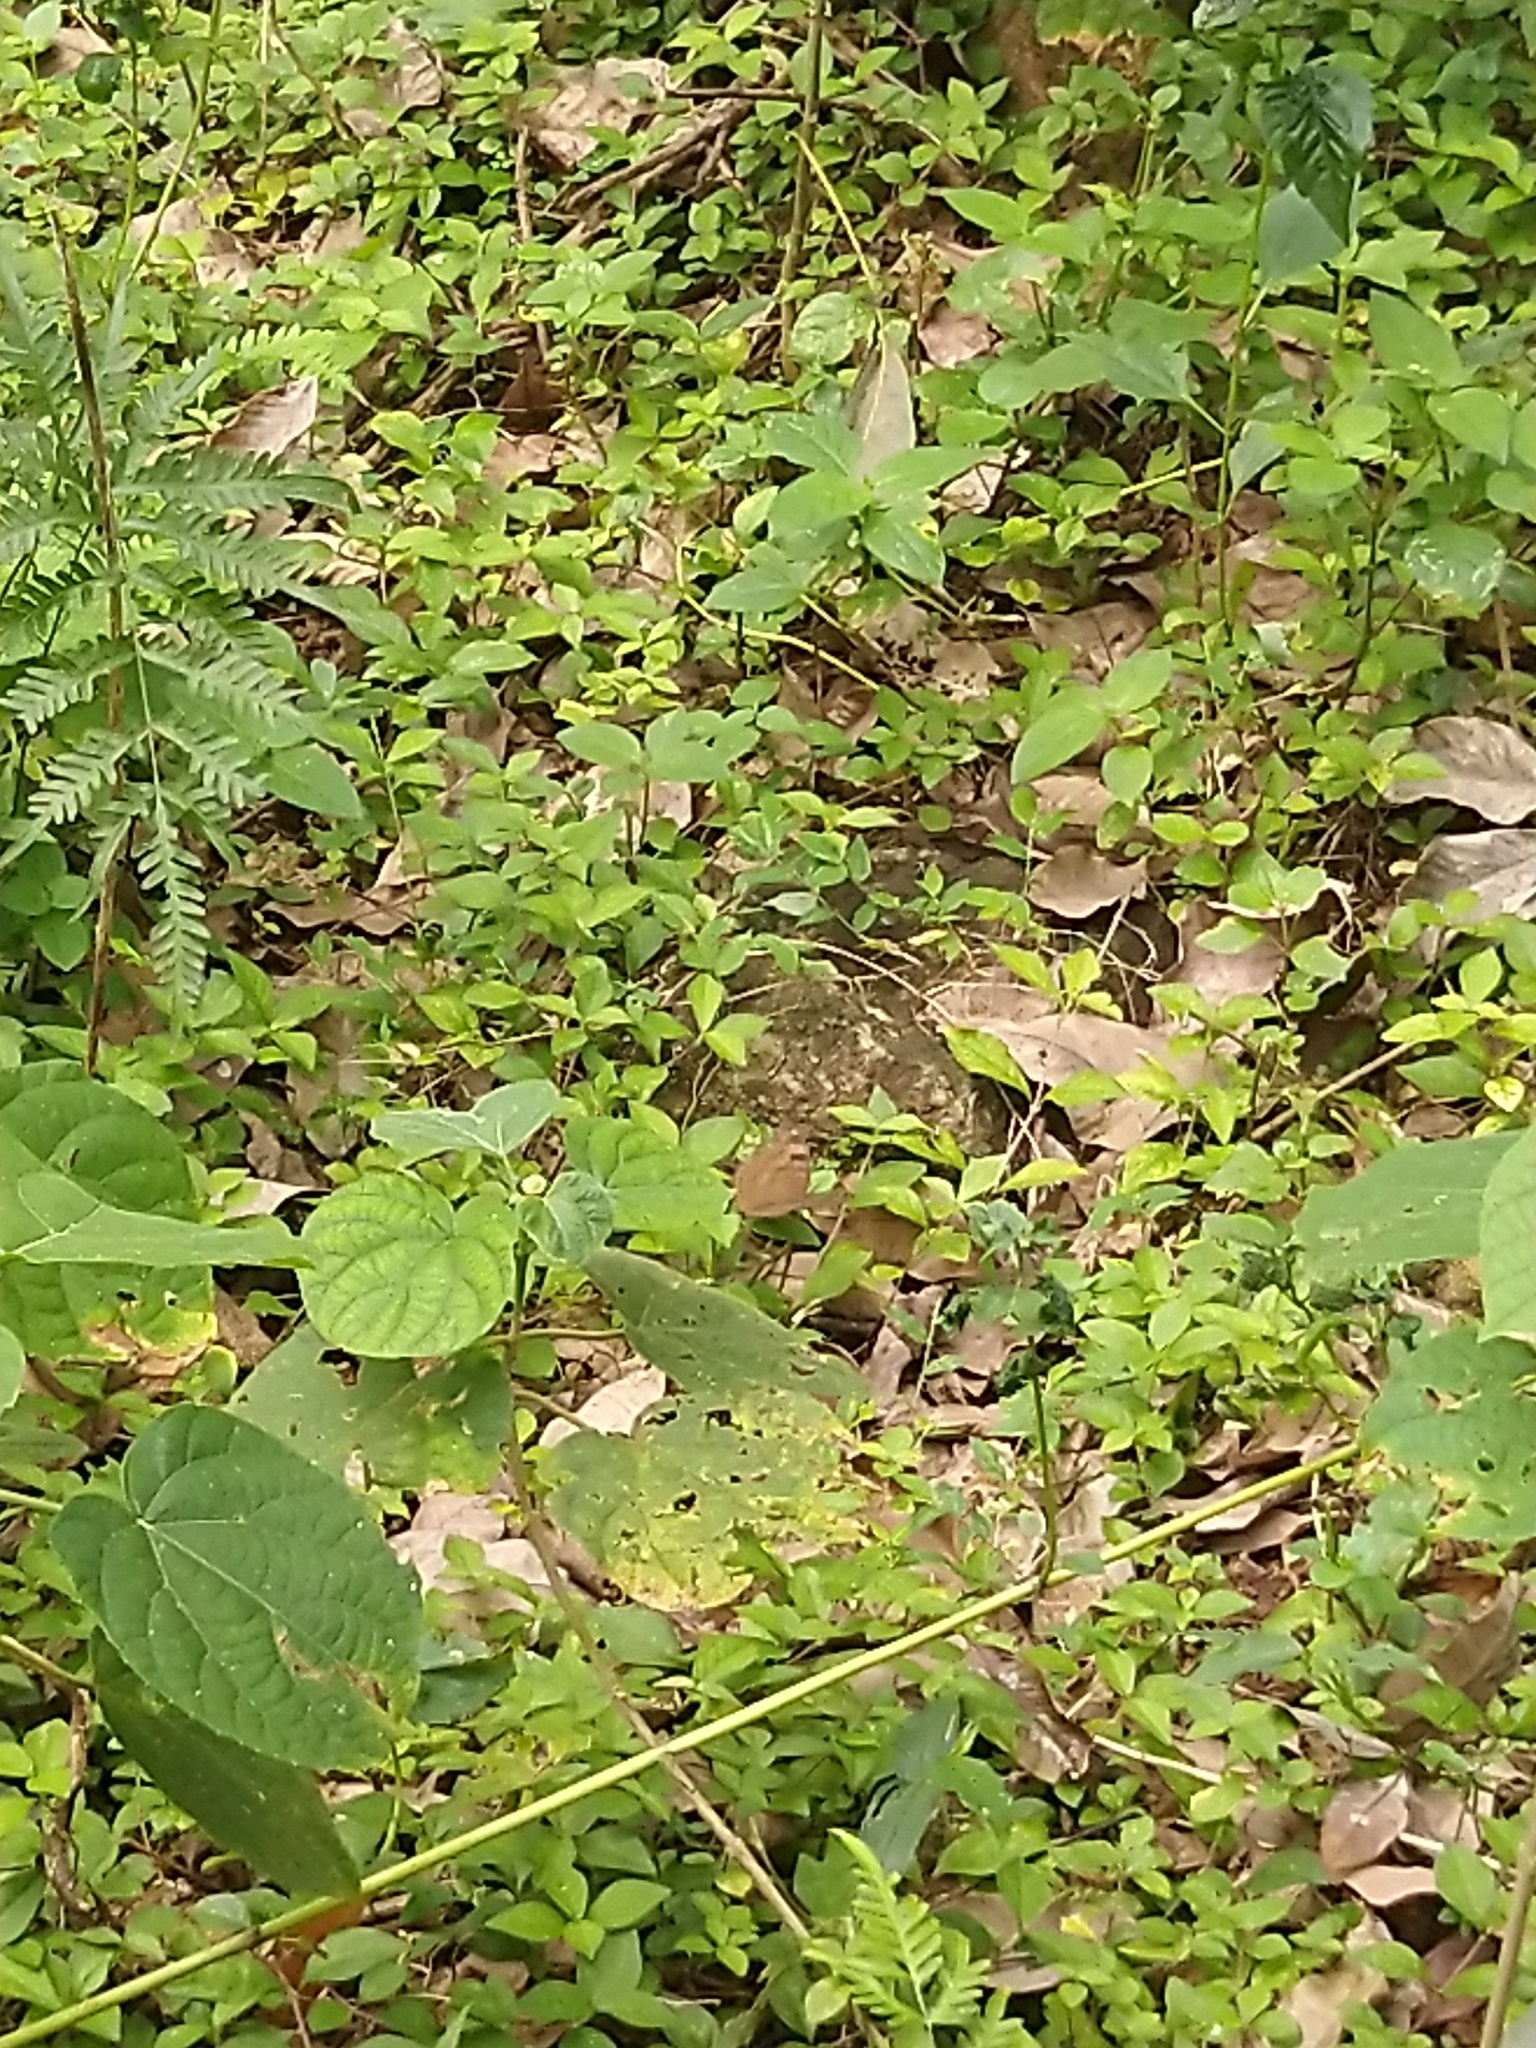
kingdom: Animalia
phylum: Arthropoda
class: Insecta
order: Lepidoptera
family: Nymphalidae
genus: Junonia
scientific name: Junonia iphita
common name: Chocolate pansy
